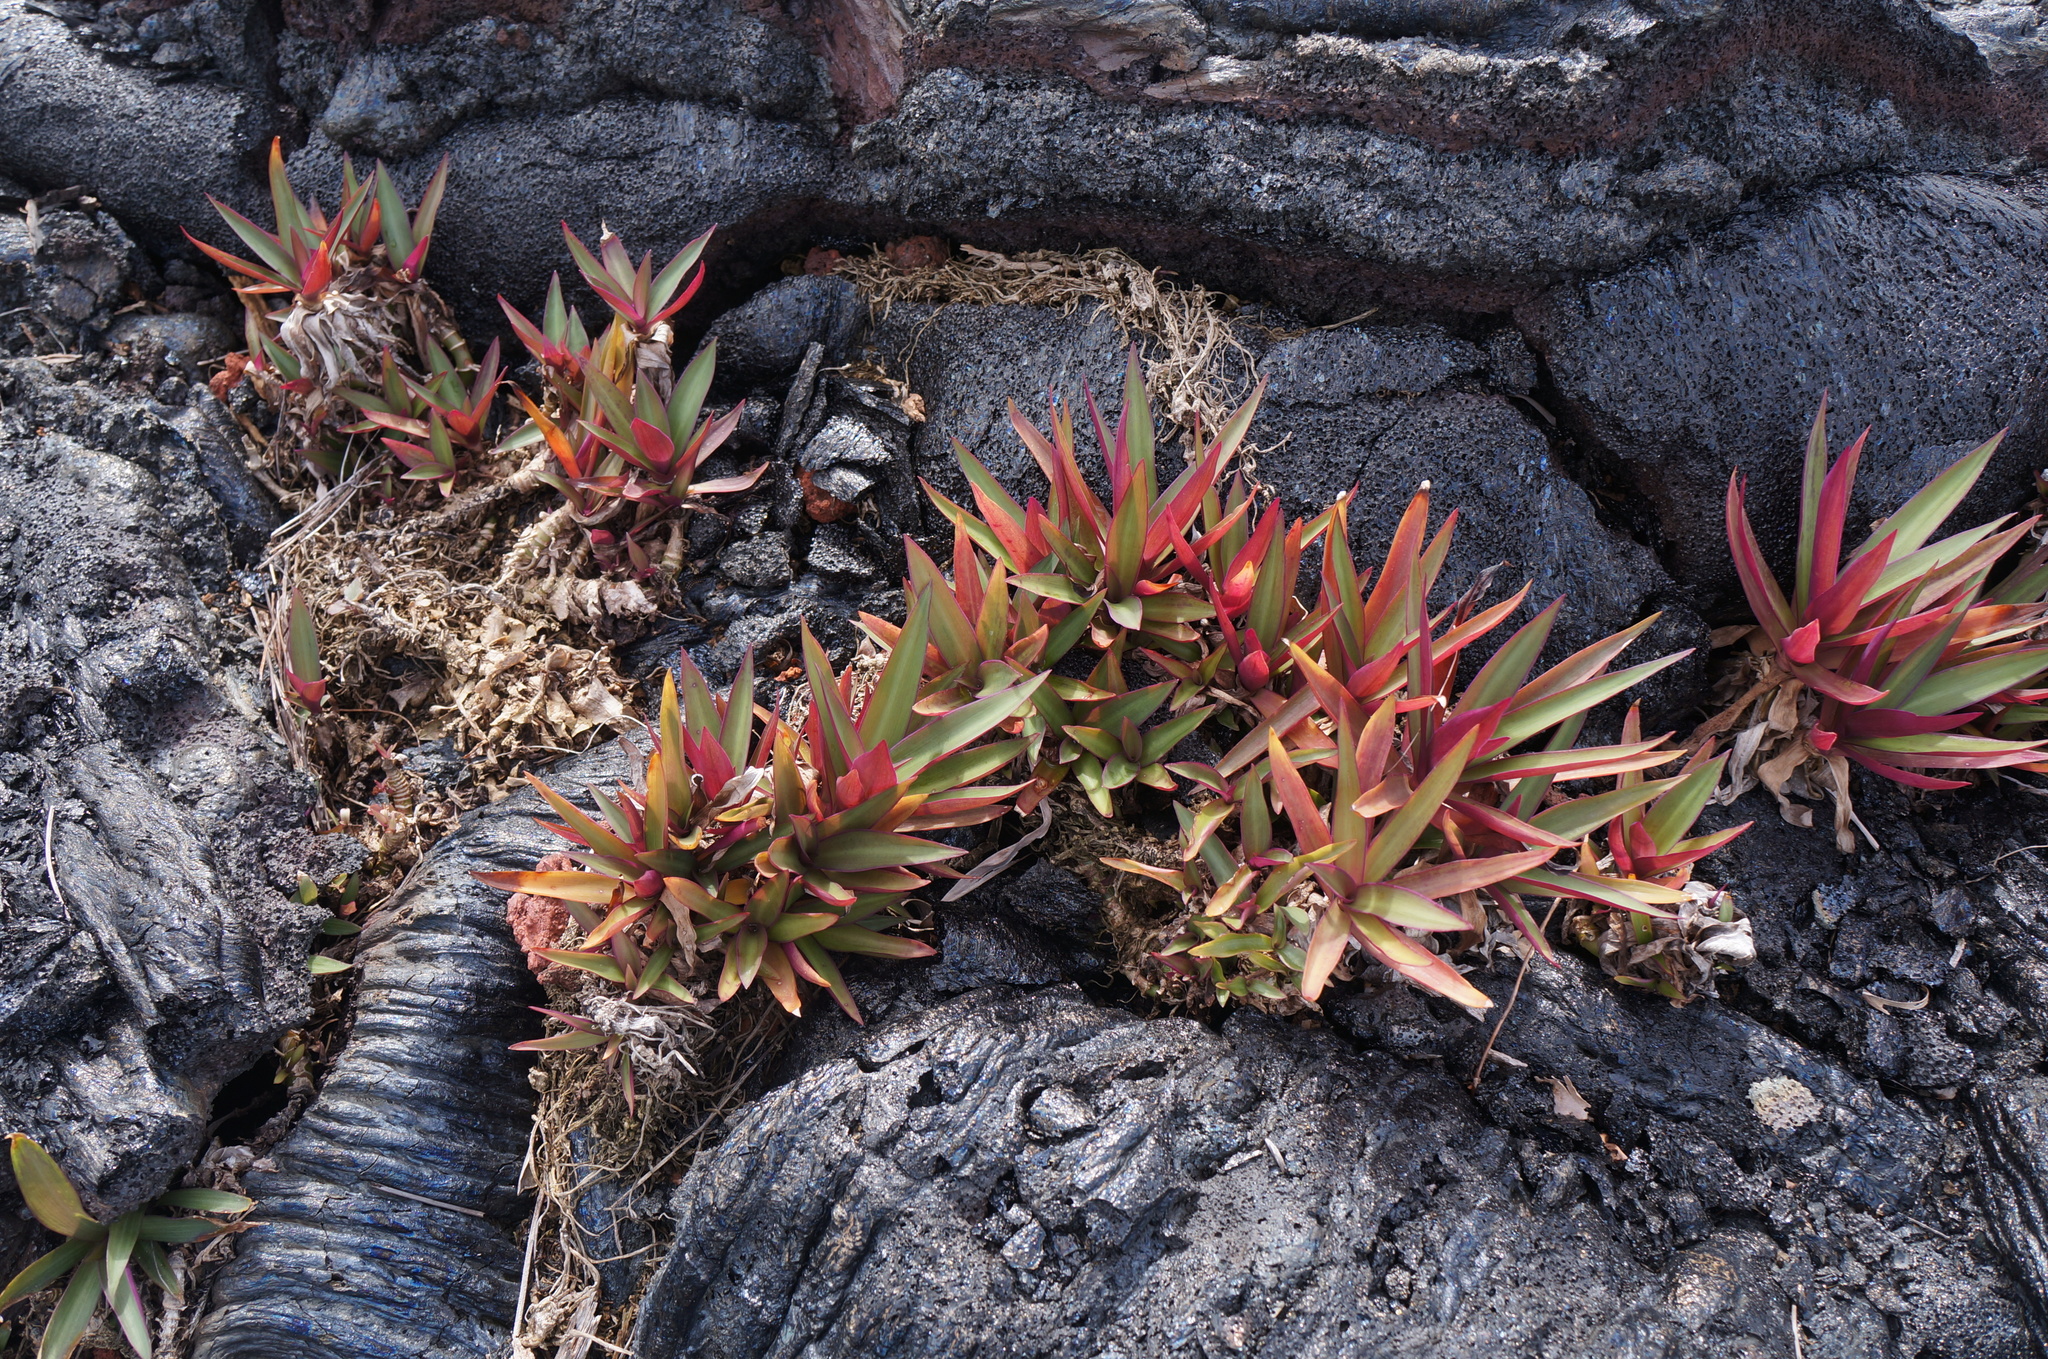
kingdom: Plantae
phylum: Tracheophyta
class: Liliopsida
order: Commelinales
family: Commelinaceae
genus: Tradescantia
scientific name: Tradescantia spathacea
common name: Boatlily
